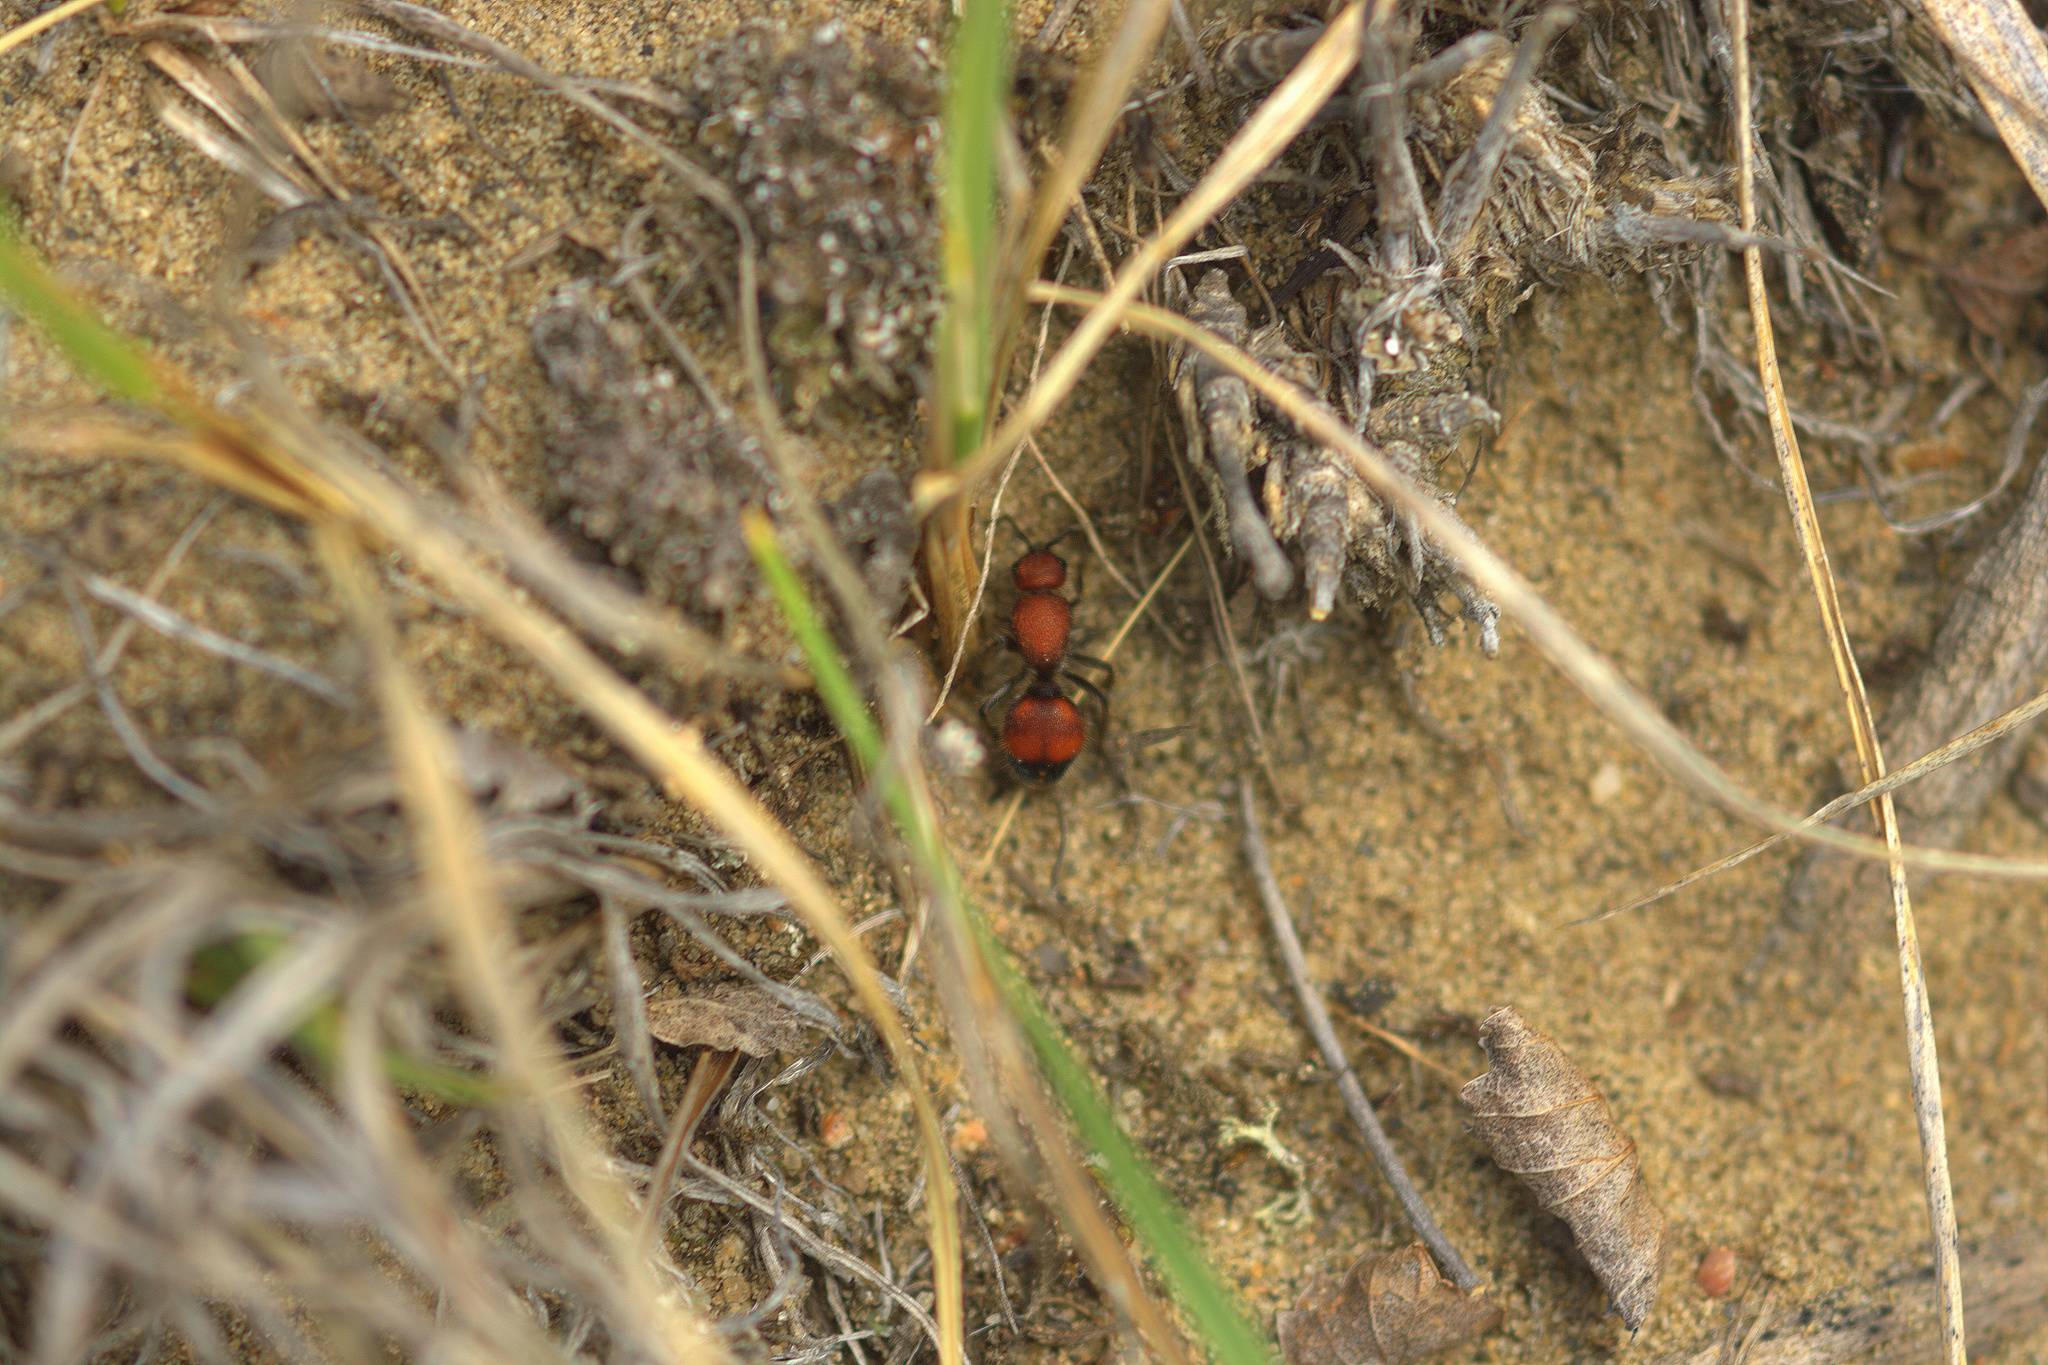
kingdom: Animalia
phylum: Arthropoda
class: Insecta
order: Hymenoptera
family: Mutillidae
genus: Dasymutilla
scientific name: Dasymutilla
